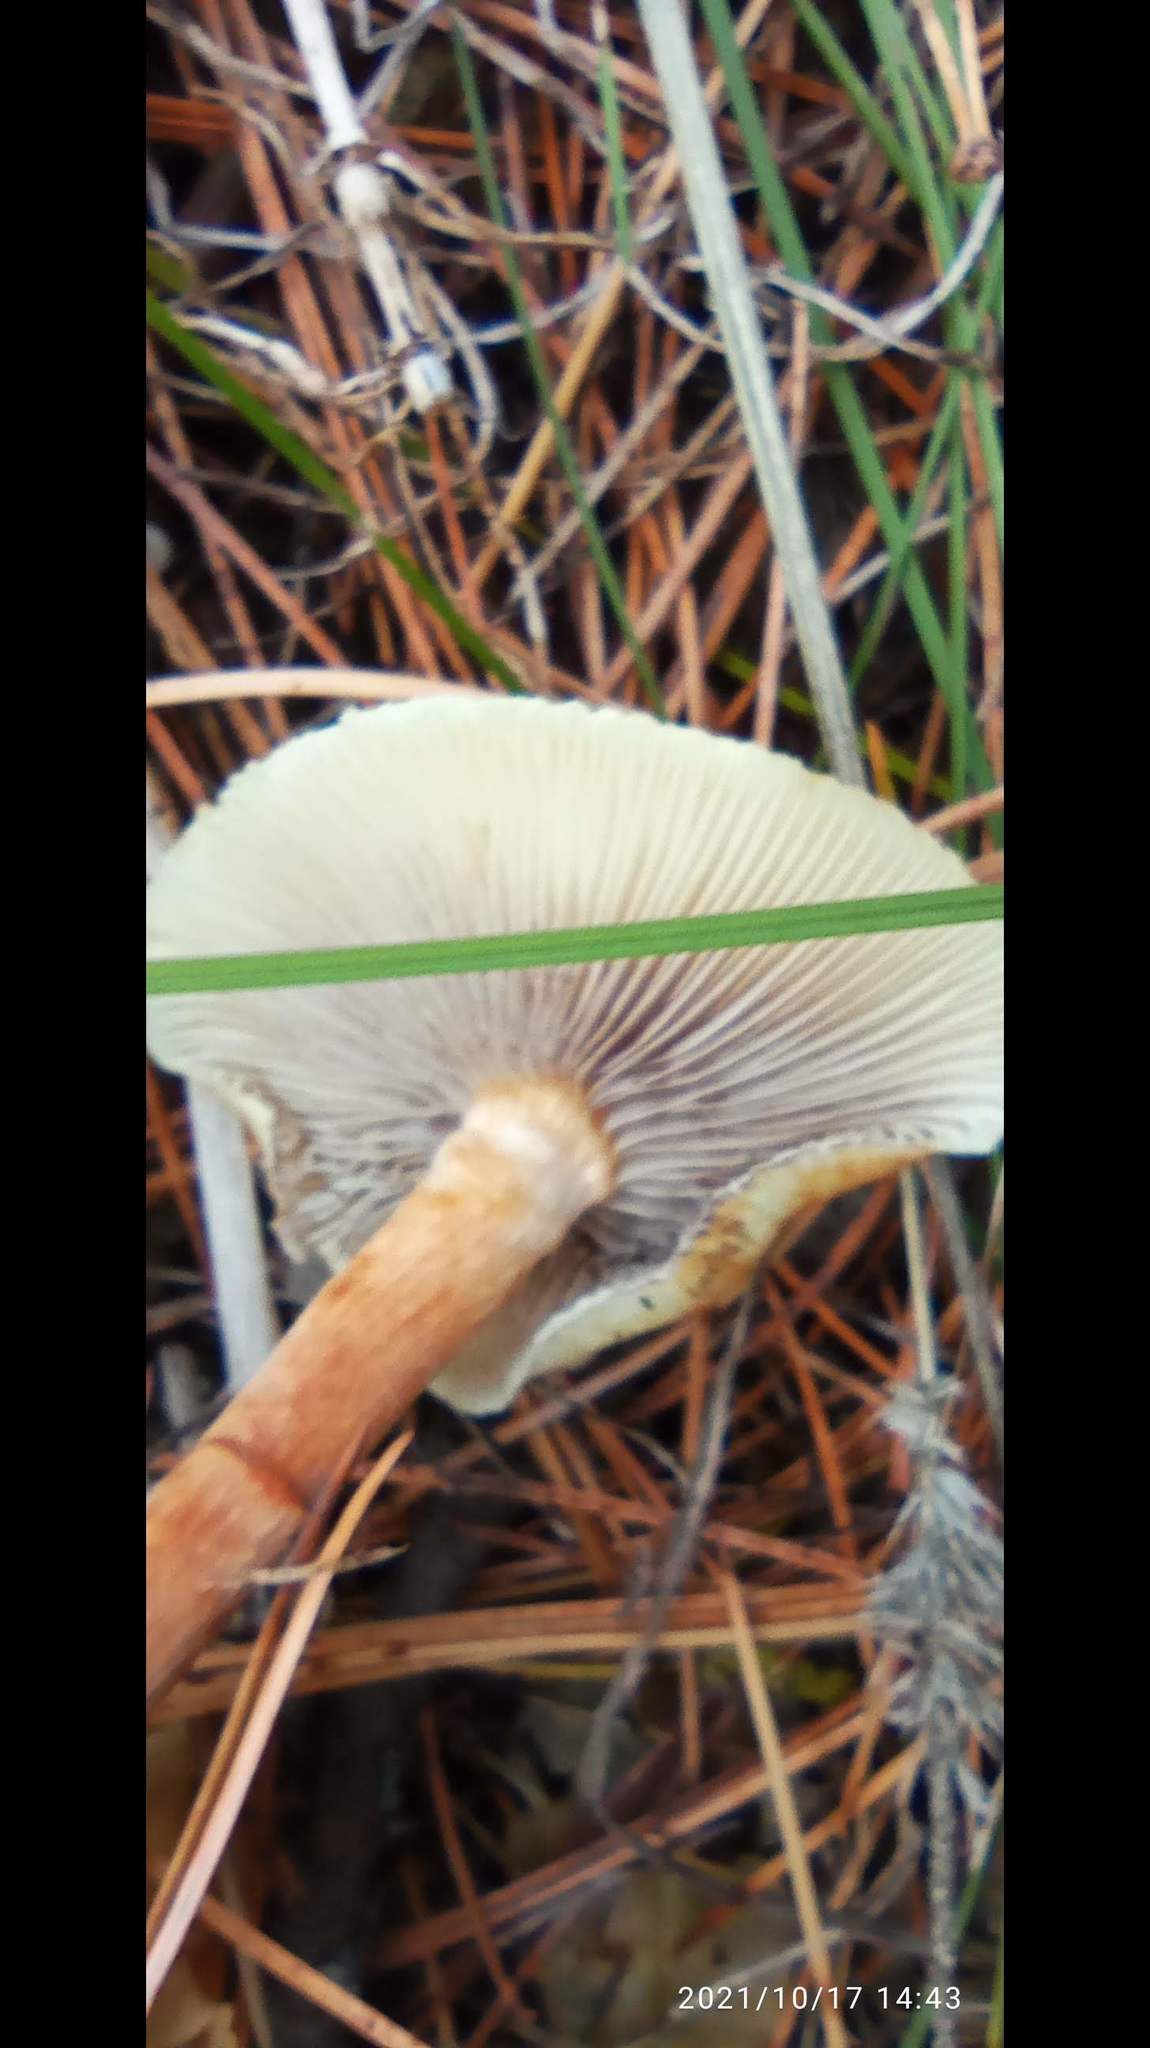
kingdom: Fungi
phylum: Basidiomycota
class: Agaricomycetes
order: Agaricales
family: Strophariaceae
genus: Hypholoma
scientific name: Hypholoma capnoides
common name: Conifer tuft
